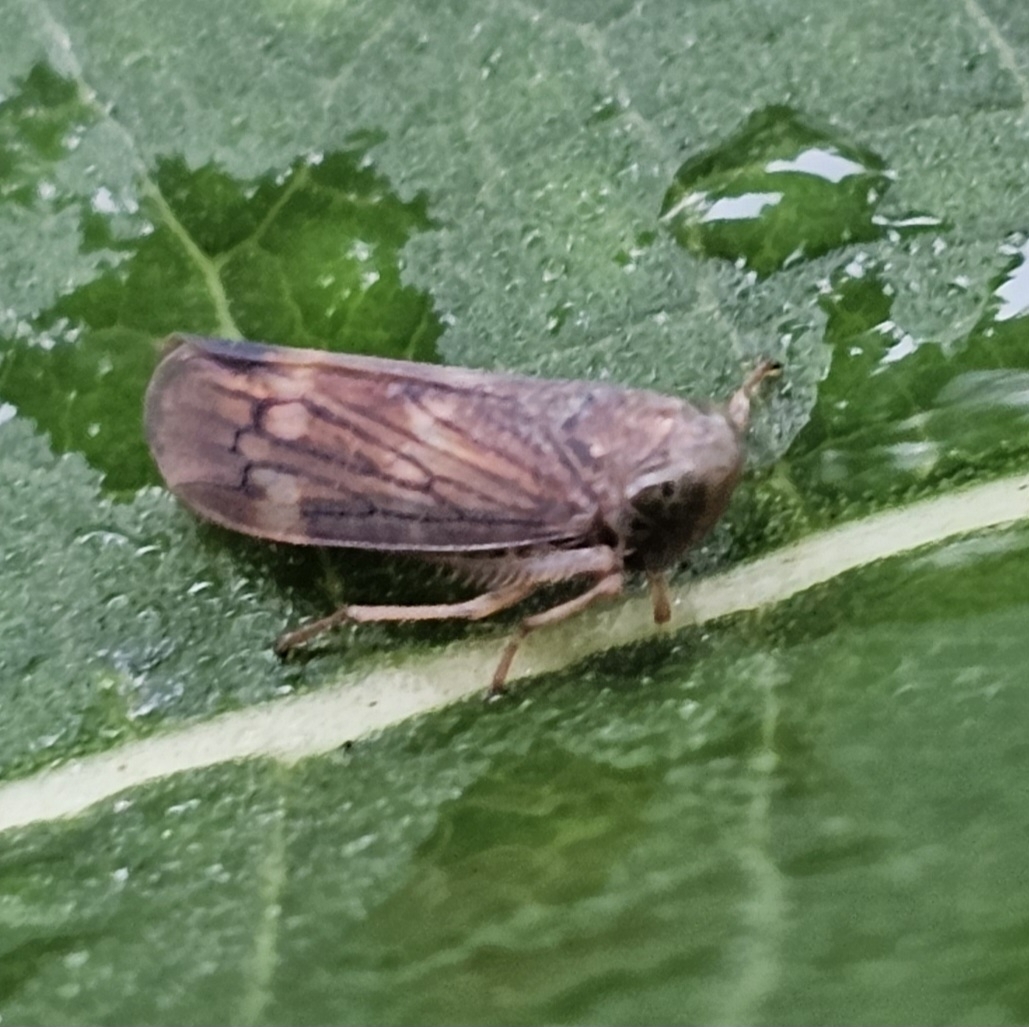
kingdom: Animalia
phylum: Arthropoda
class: Insecta
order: Hemiptera
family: Cicadellidae
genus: Jikradia
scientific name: Jikradia olitoria
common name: Coppery leafhopper
